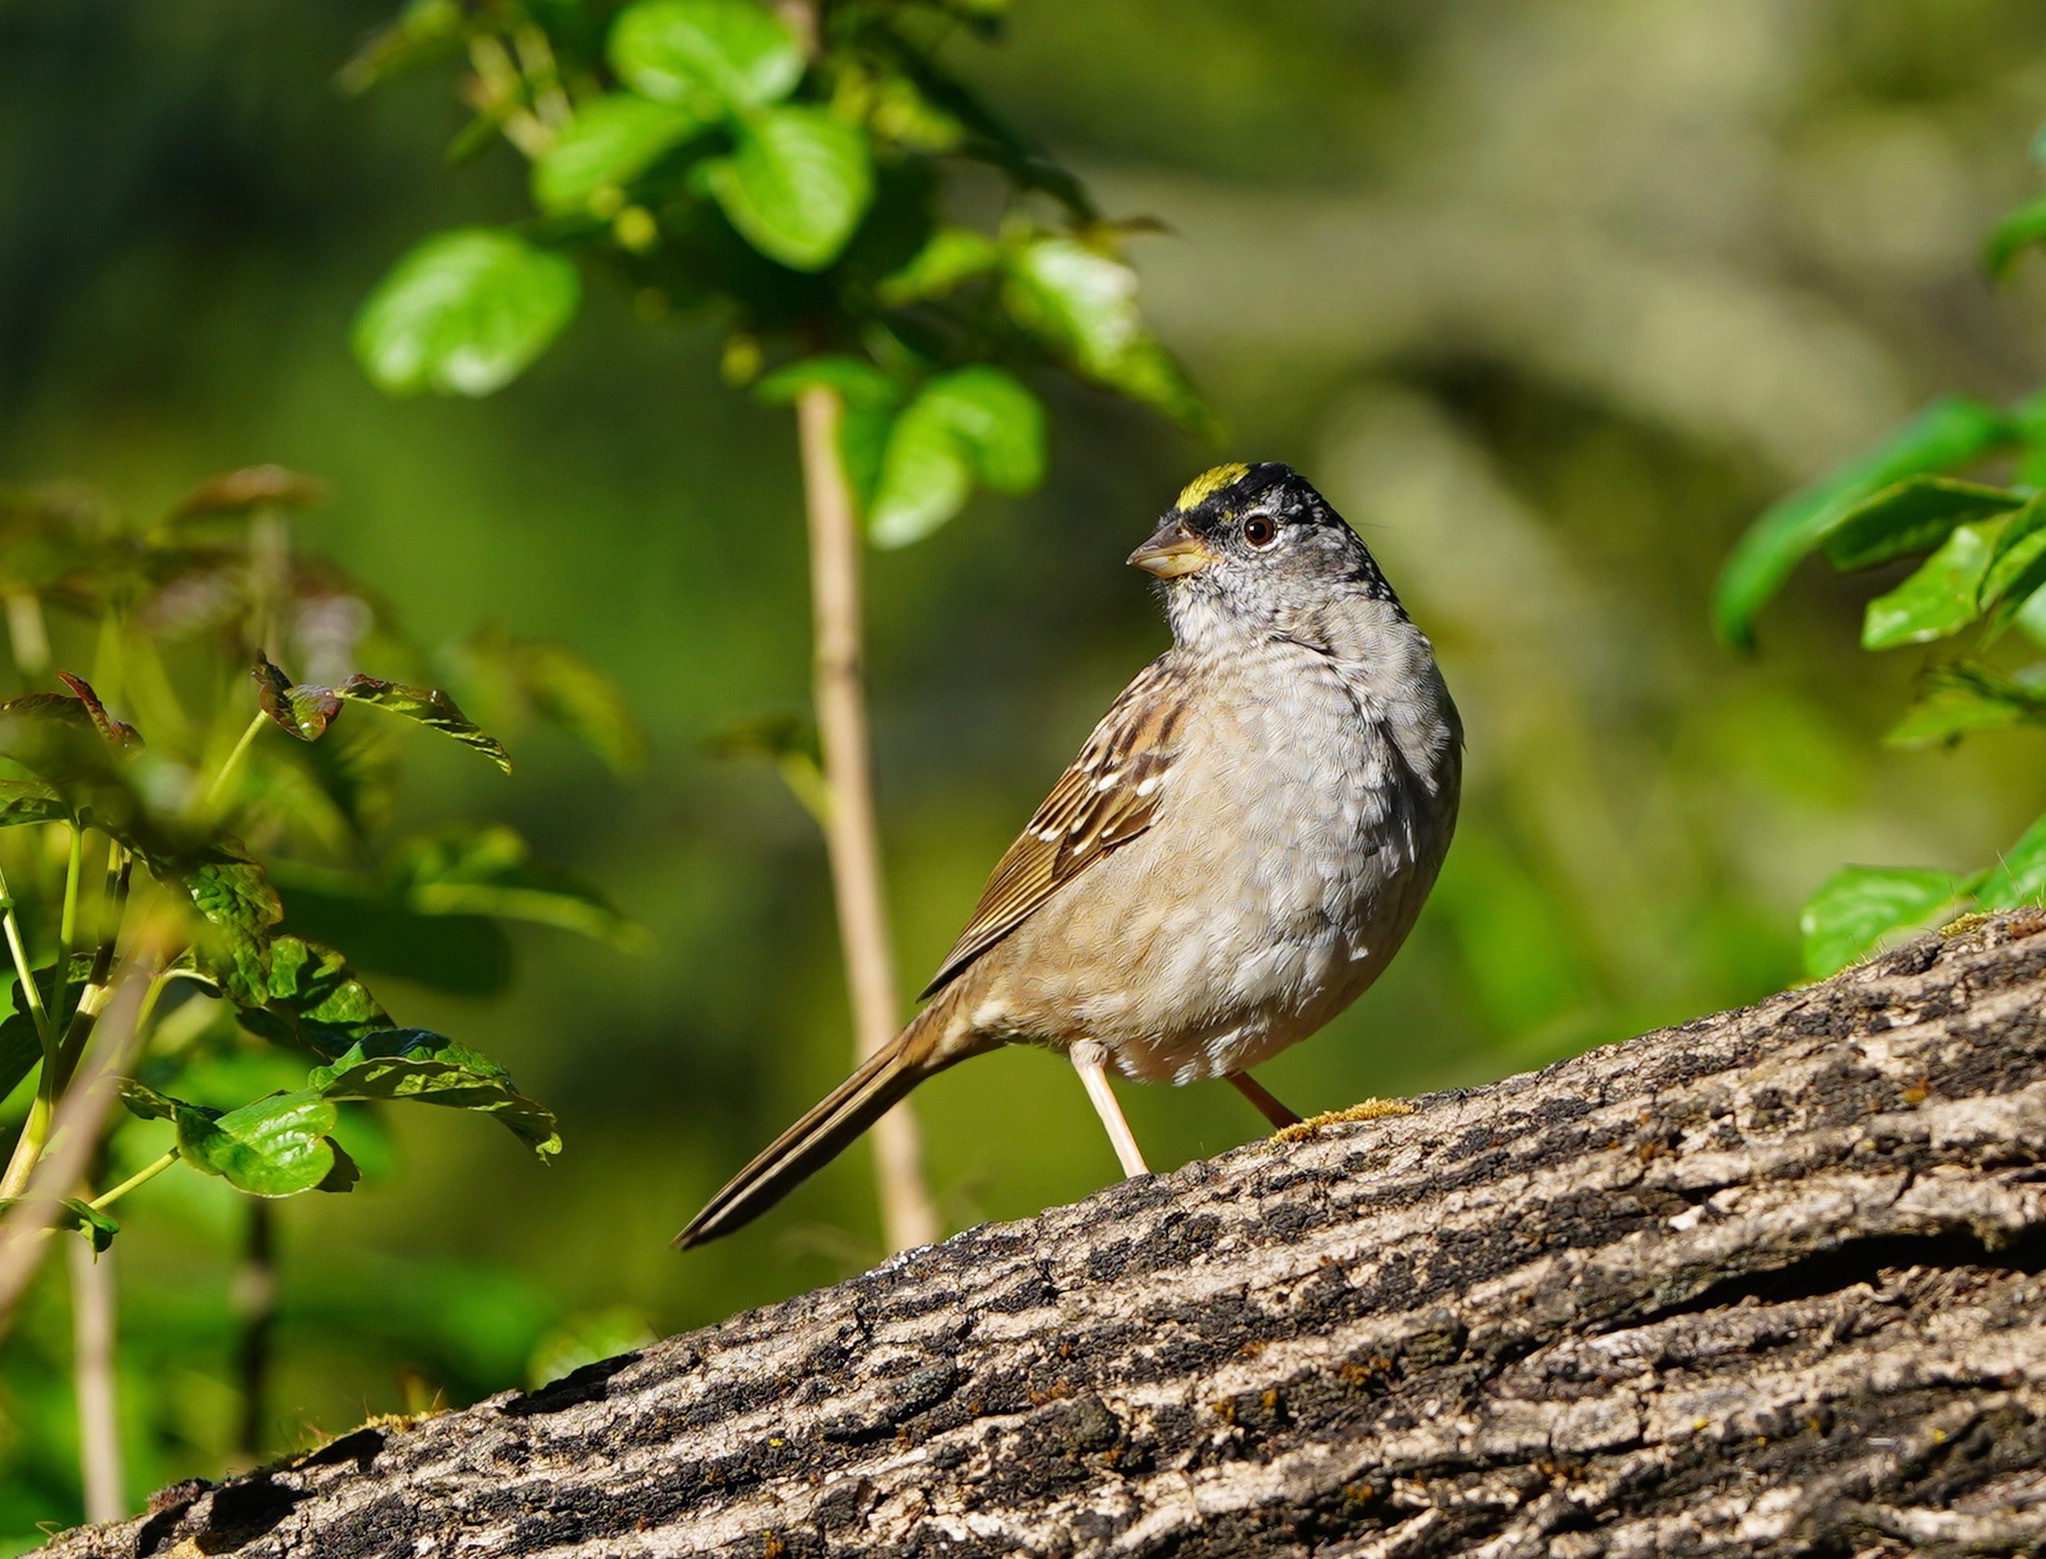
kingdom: Animalia
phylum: Chordata
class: Aves
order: Passeriformes
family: Passerellidae
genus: Zonotrichia
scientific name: Zonotrichia atricapilla
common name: Golden-crowned sparrow
